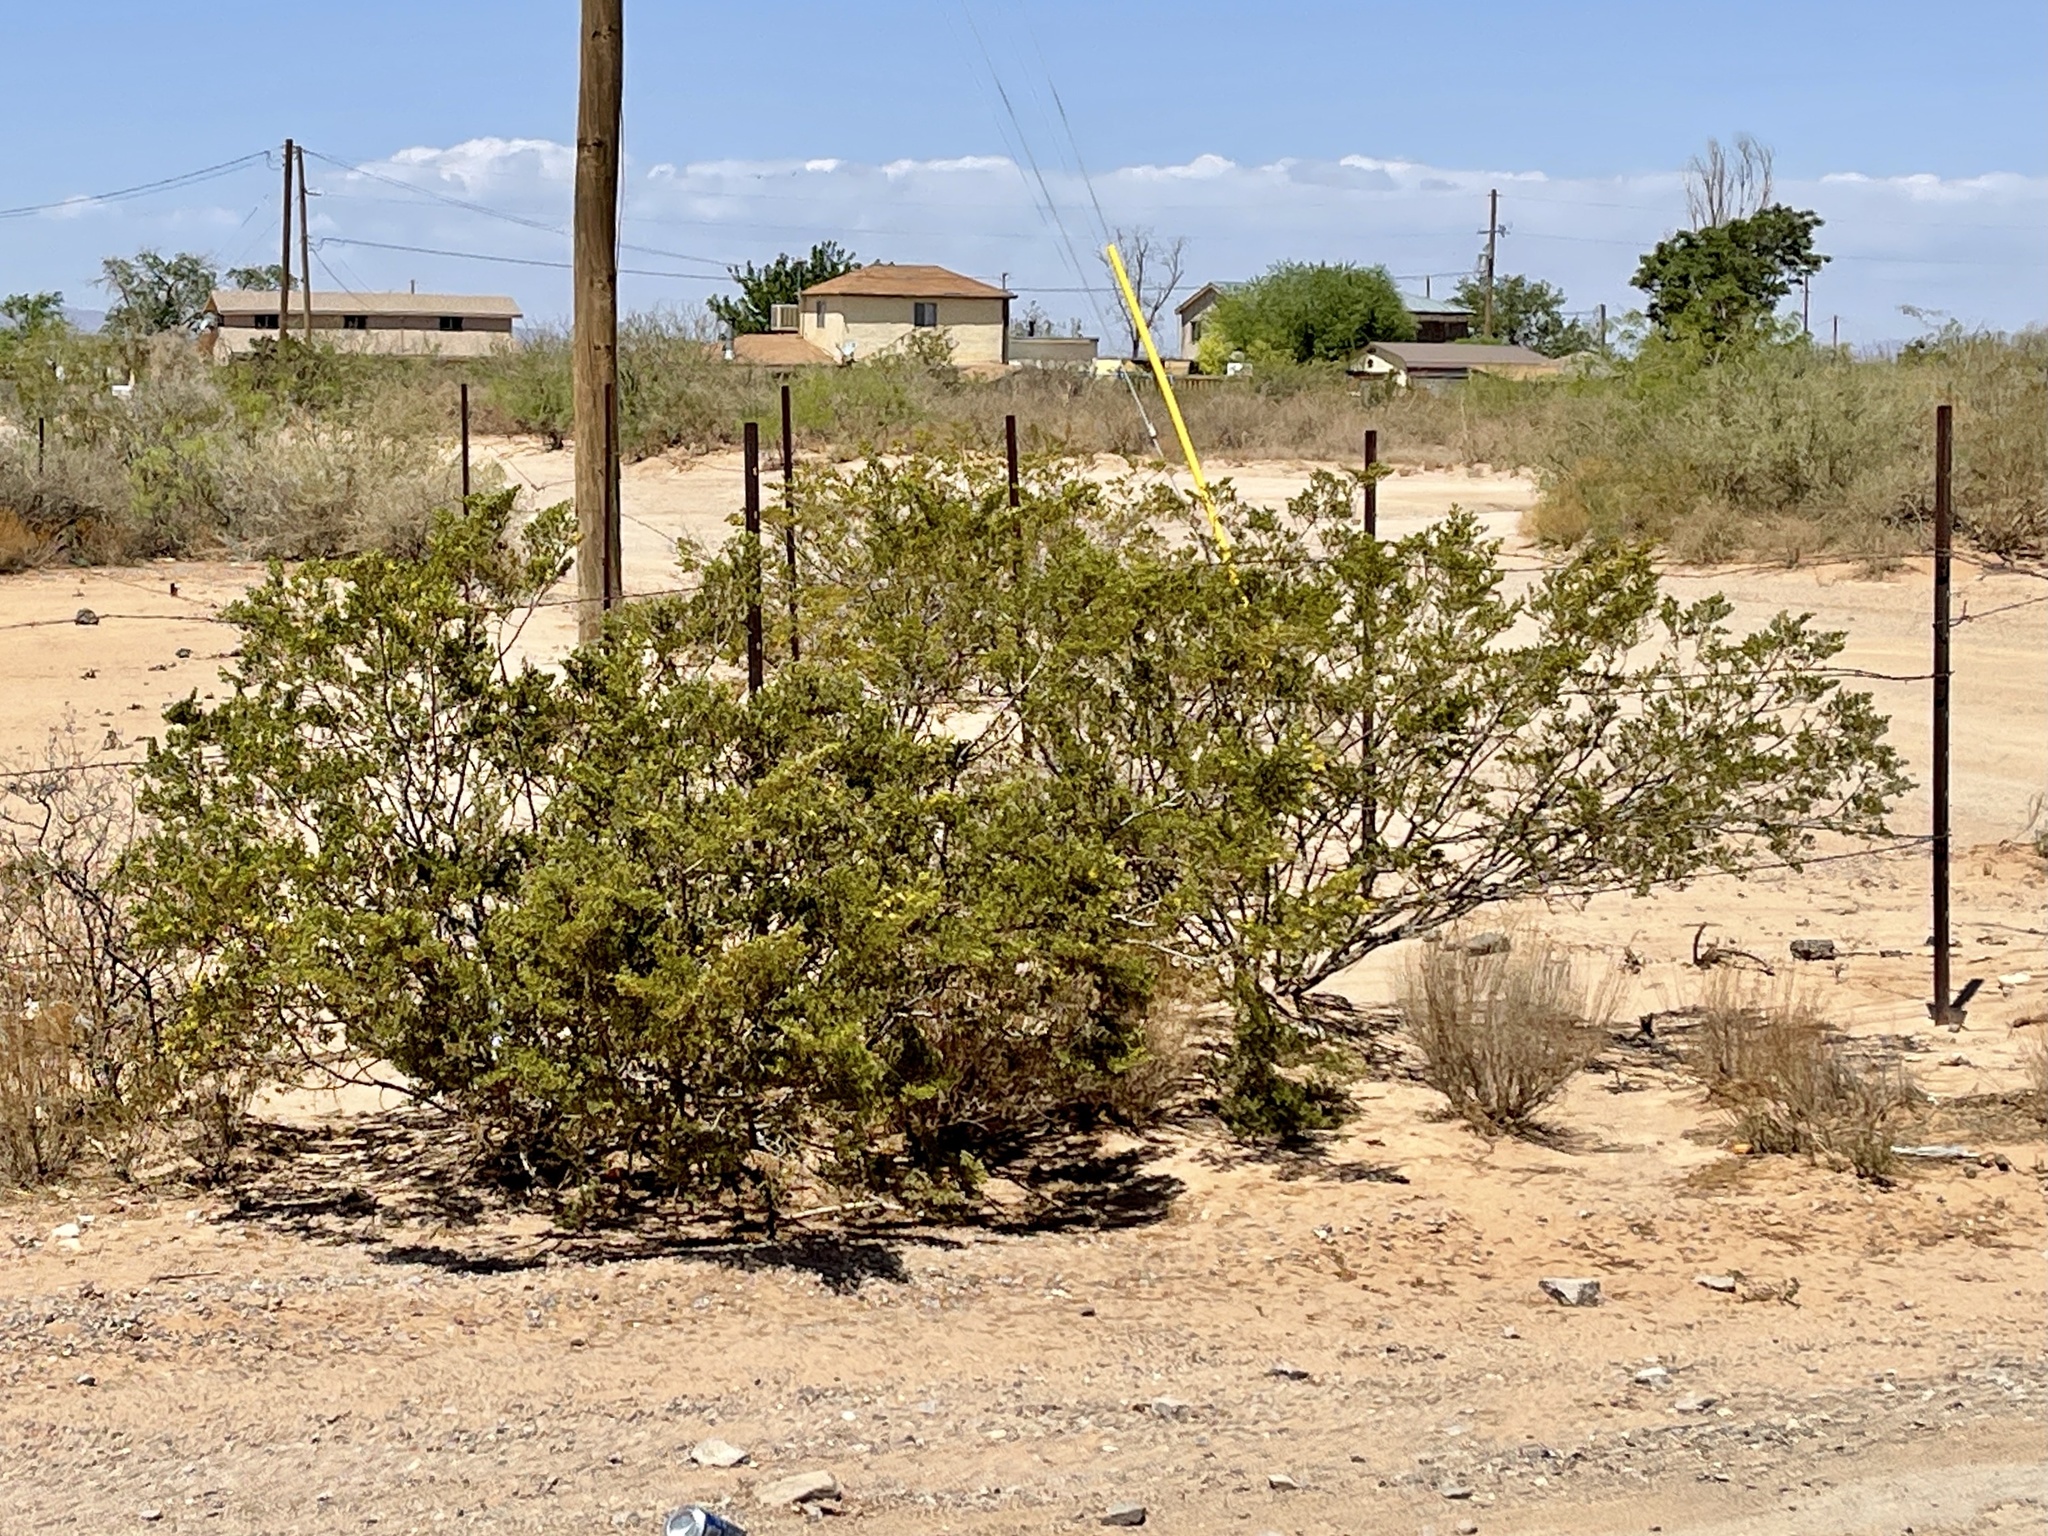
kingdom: Plantae
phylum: Tracheophyta
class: Magnoliopsida
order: Zygophyllales
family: Zygophyllaceae
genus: Larrea
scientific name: Larrea tridentata
